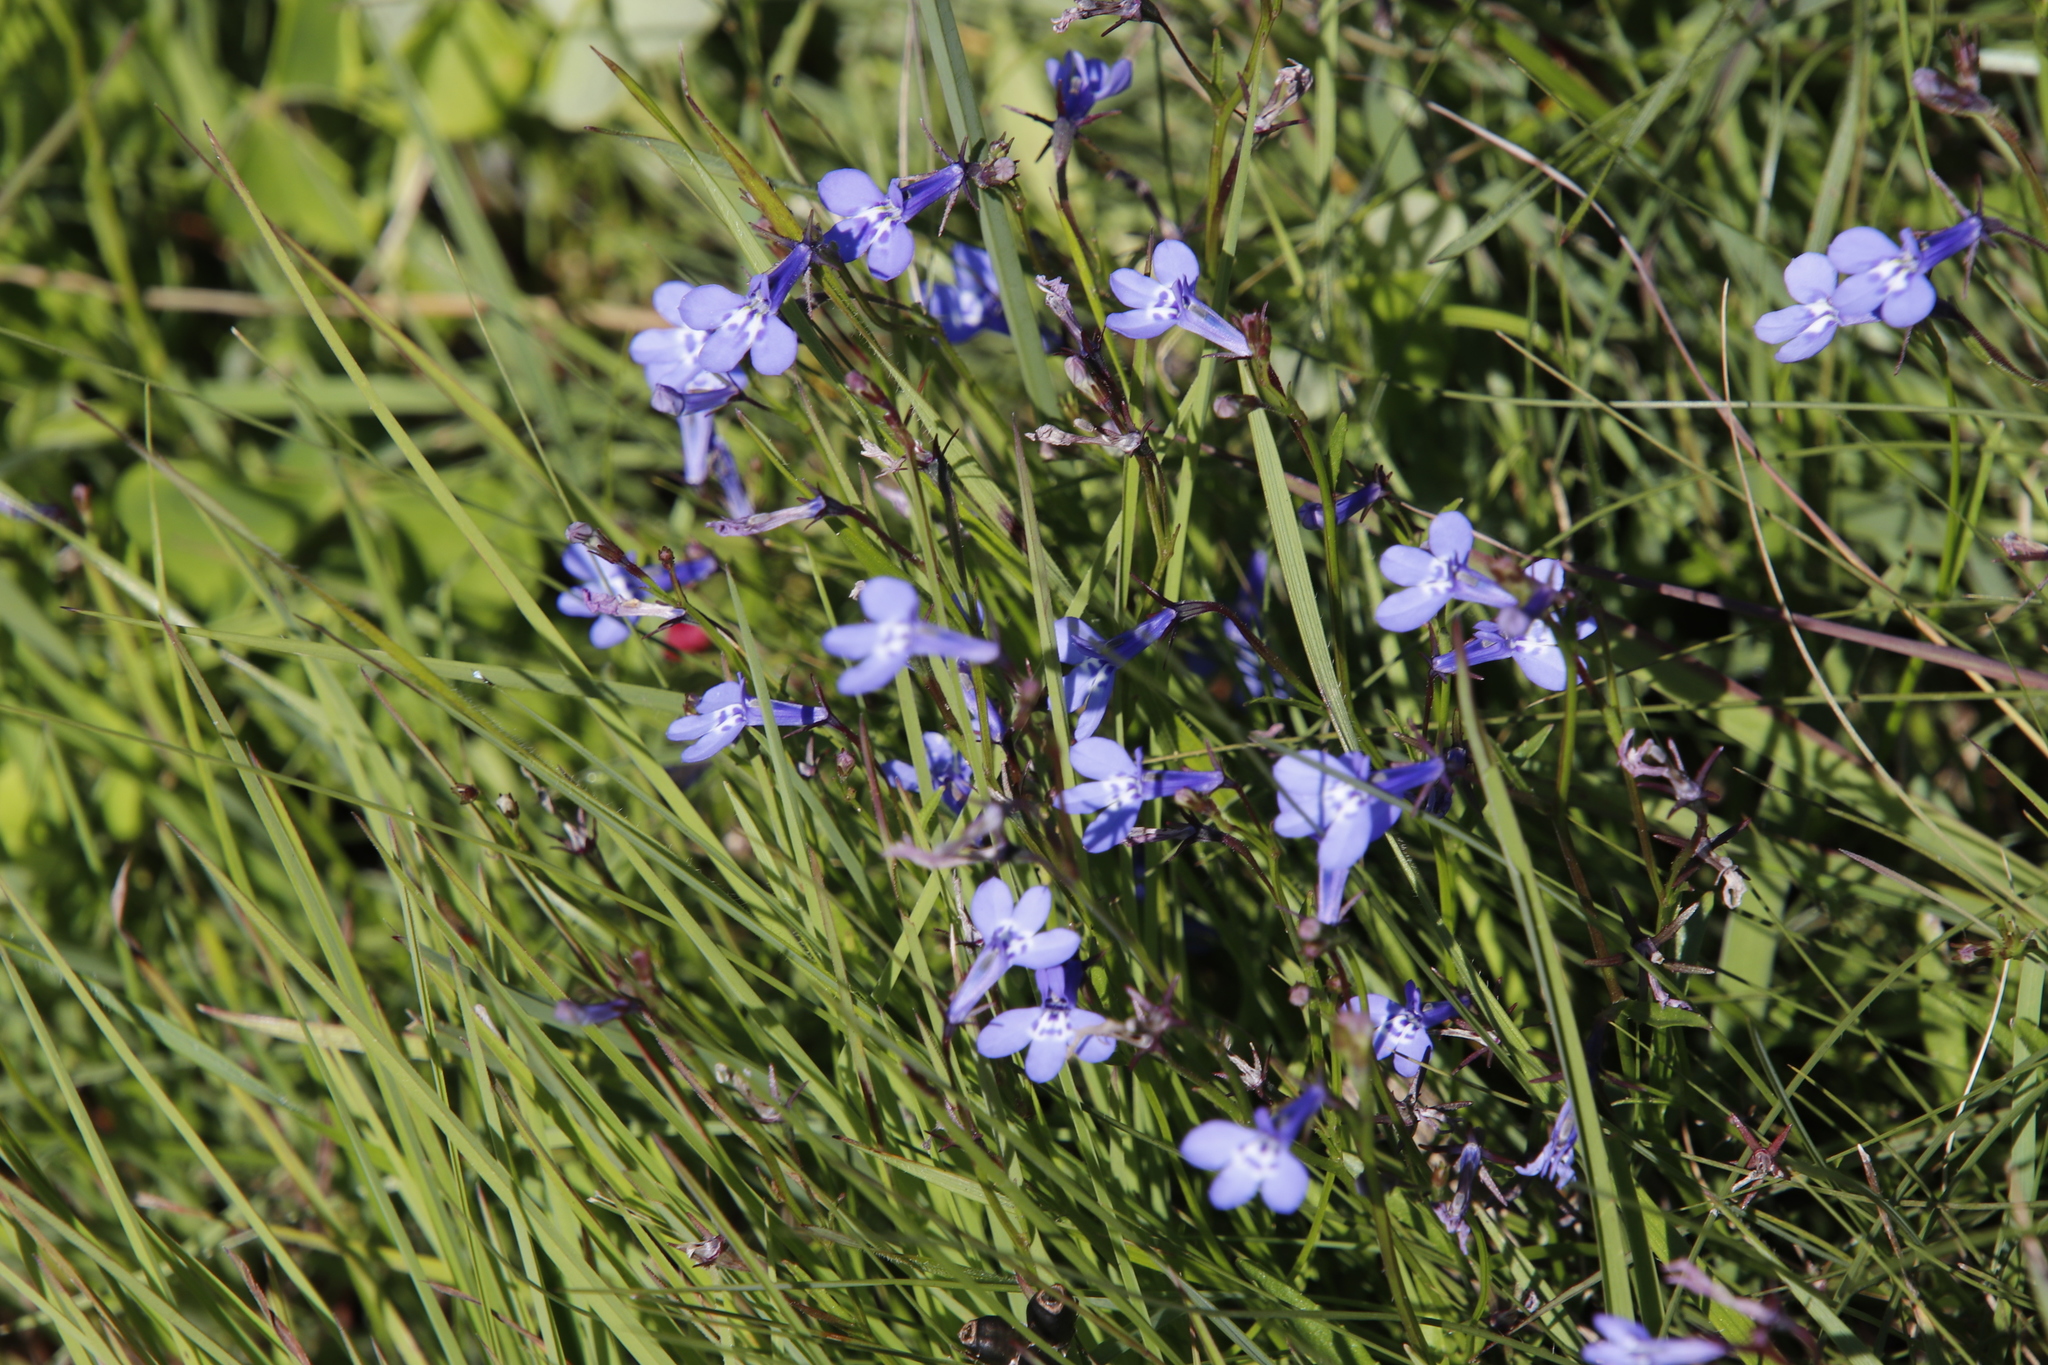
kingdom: Plantae
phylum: Tracheophyta
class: Magnoliopsida
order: Asterales
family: Campanulaceae
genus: Lobelia
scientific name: Lobelia flaccida
